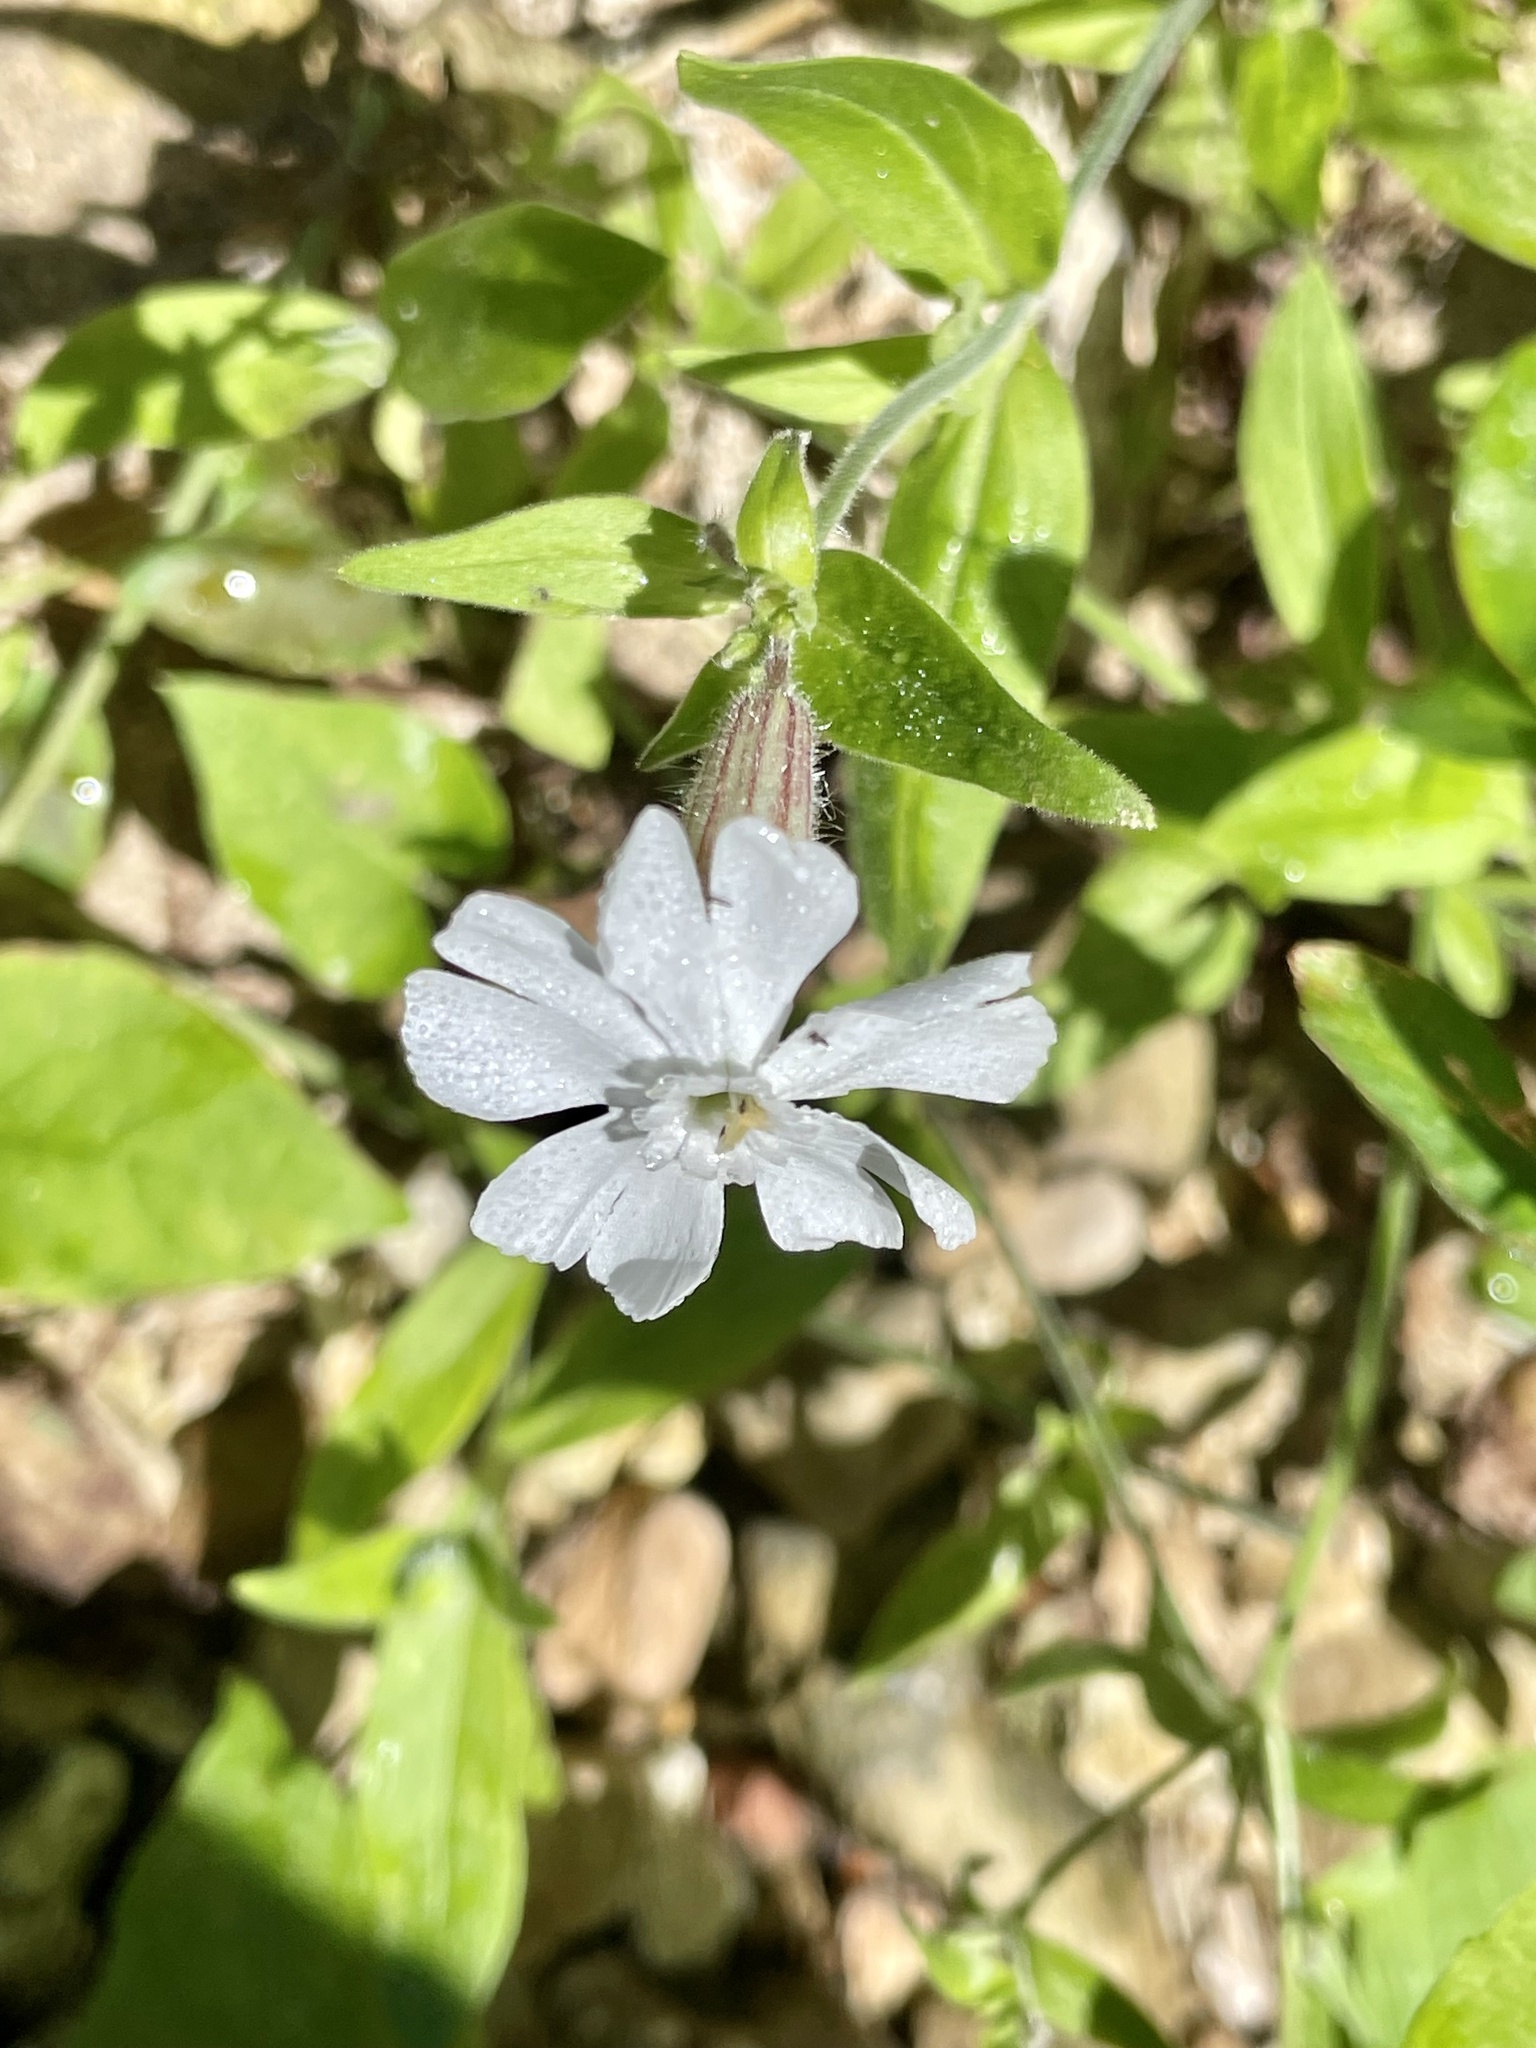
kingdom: Plantae
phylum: Tracheophyta
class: Magnoliopsida
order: Caryophyllales
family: Caryophyllaceae
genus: Silene
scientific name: Silene latifolia
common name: White campion
